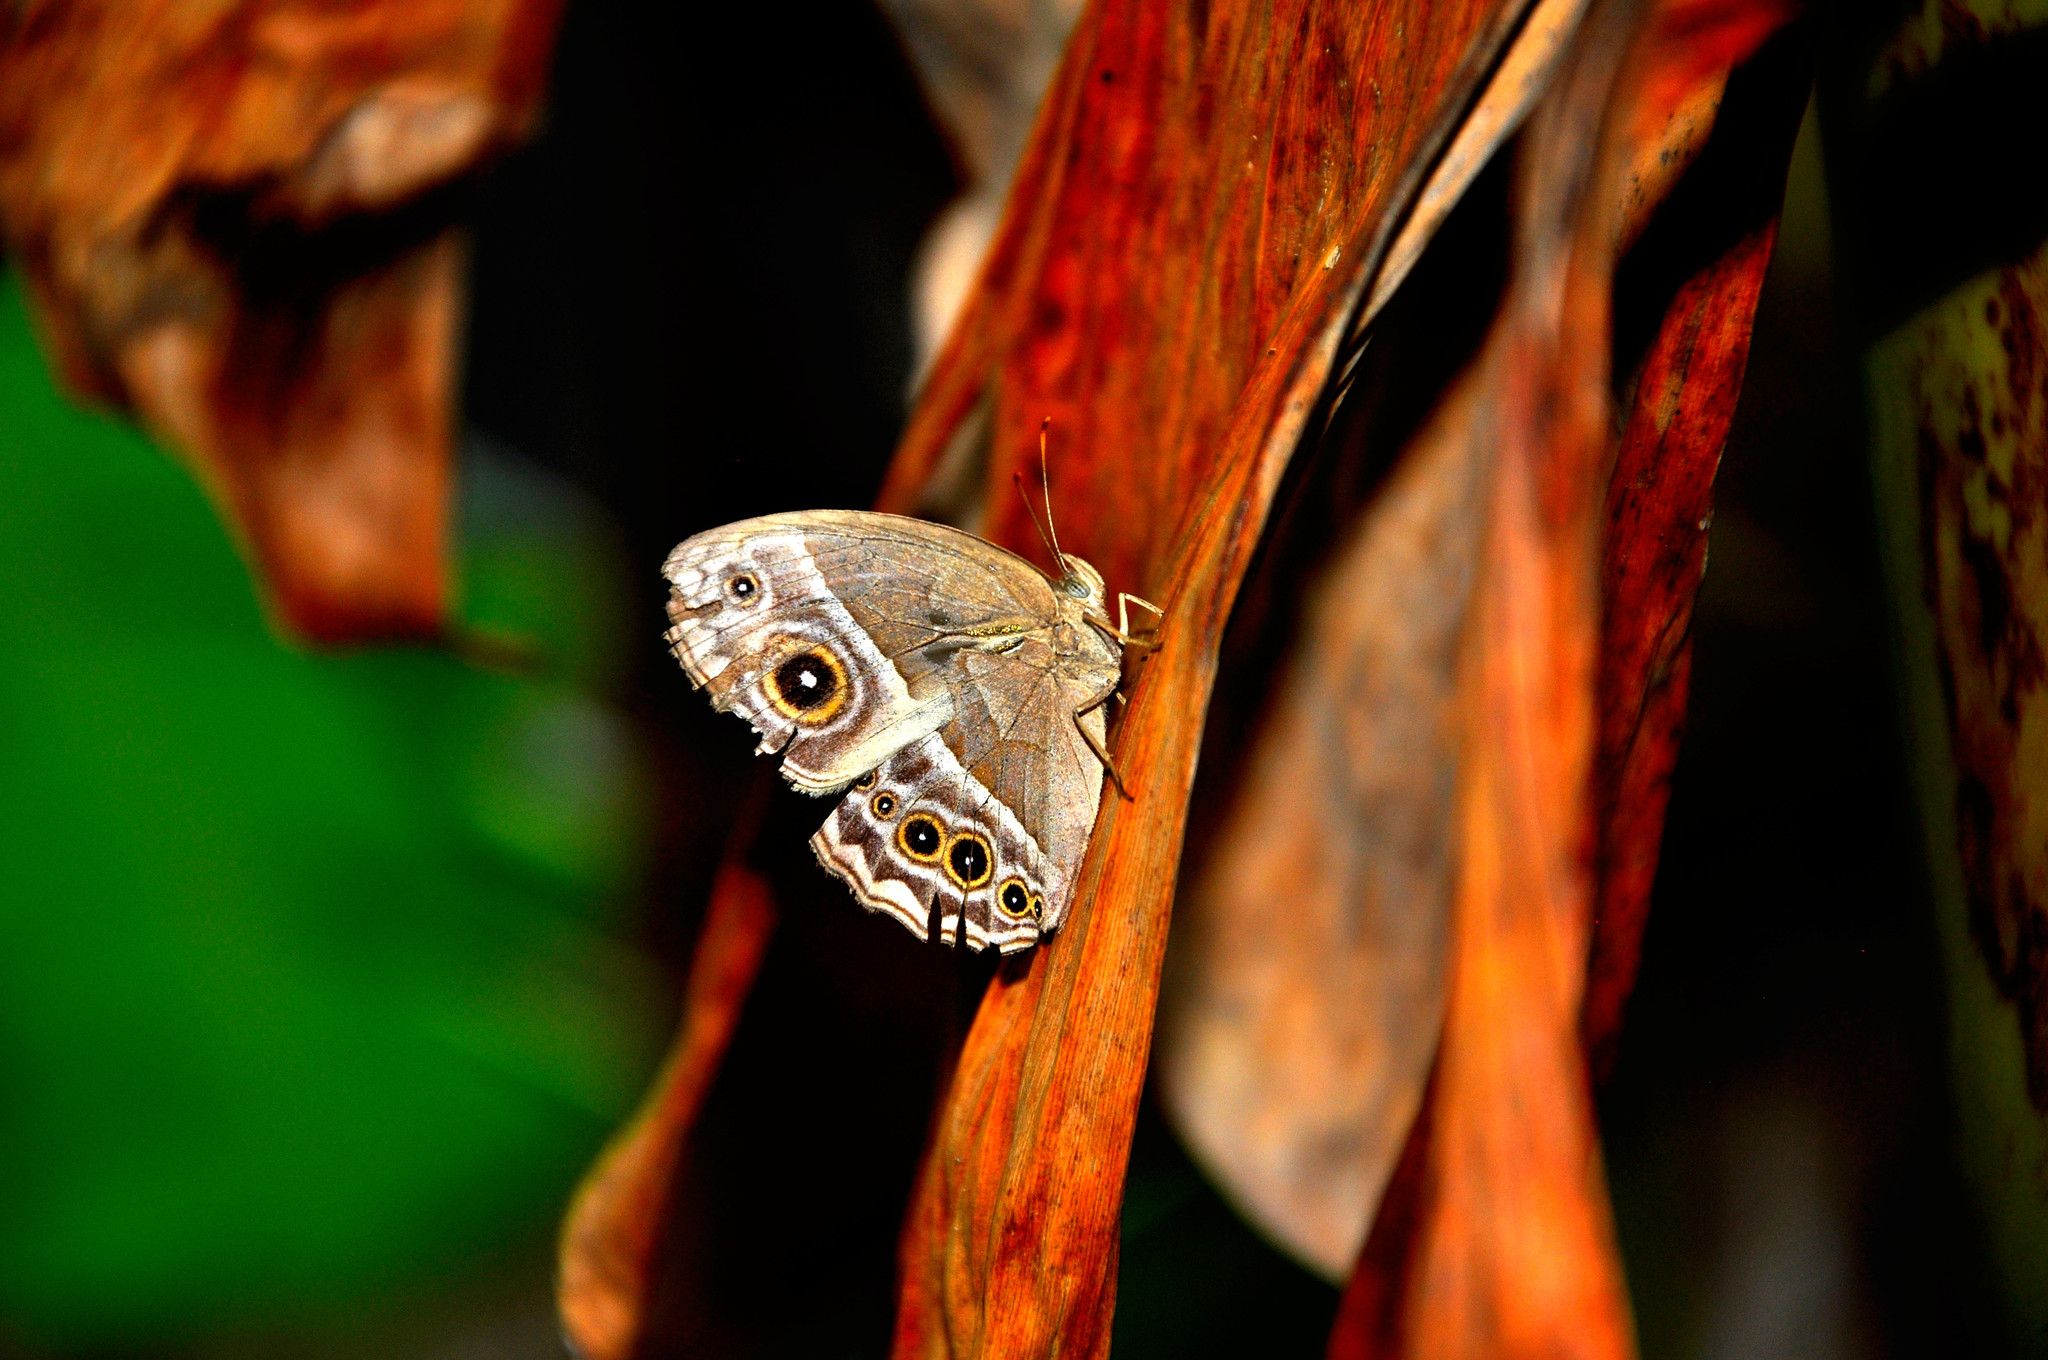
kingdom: Animalia
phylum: Arthropoda
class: Insecta
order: Lepidoptera
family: Nymphalidae
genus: Mycalesis
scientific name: Mycalesis rhacotis
